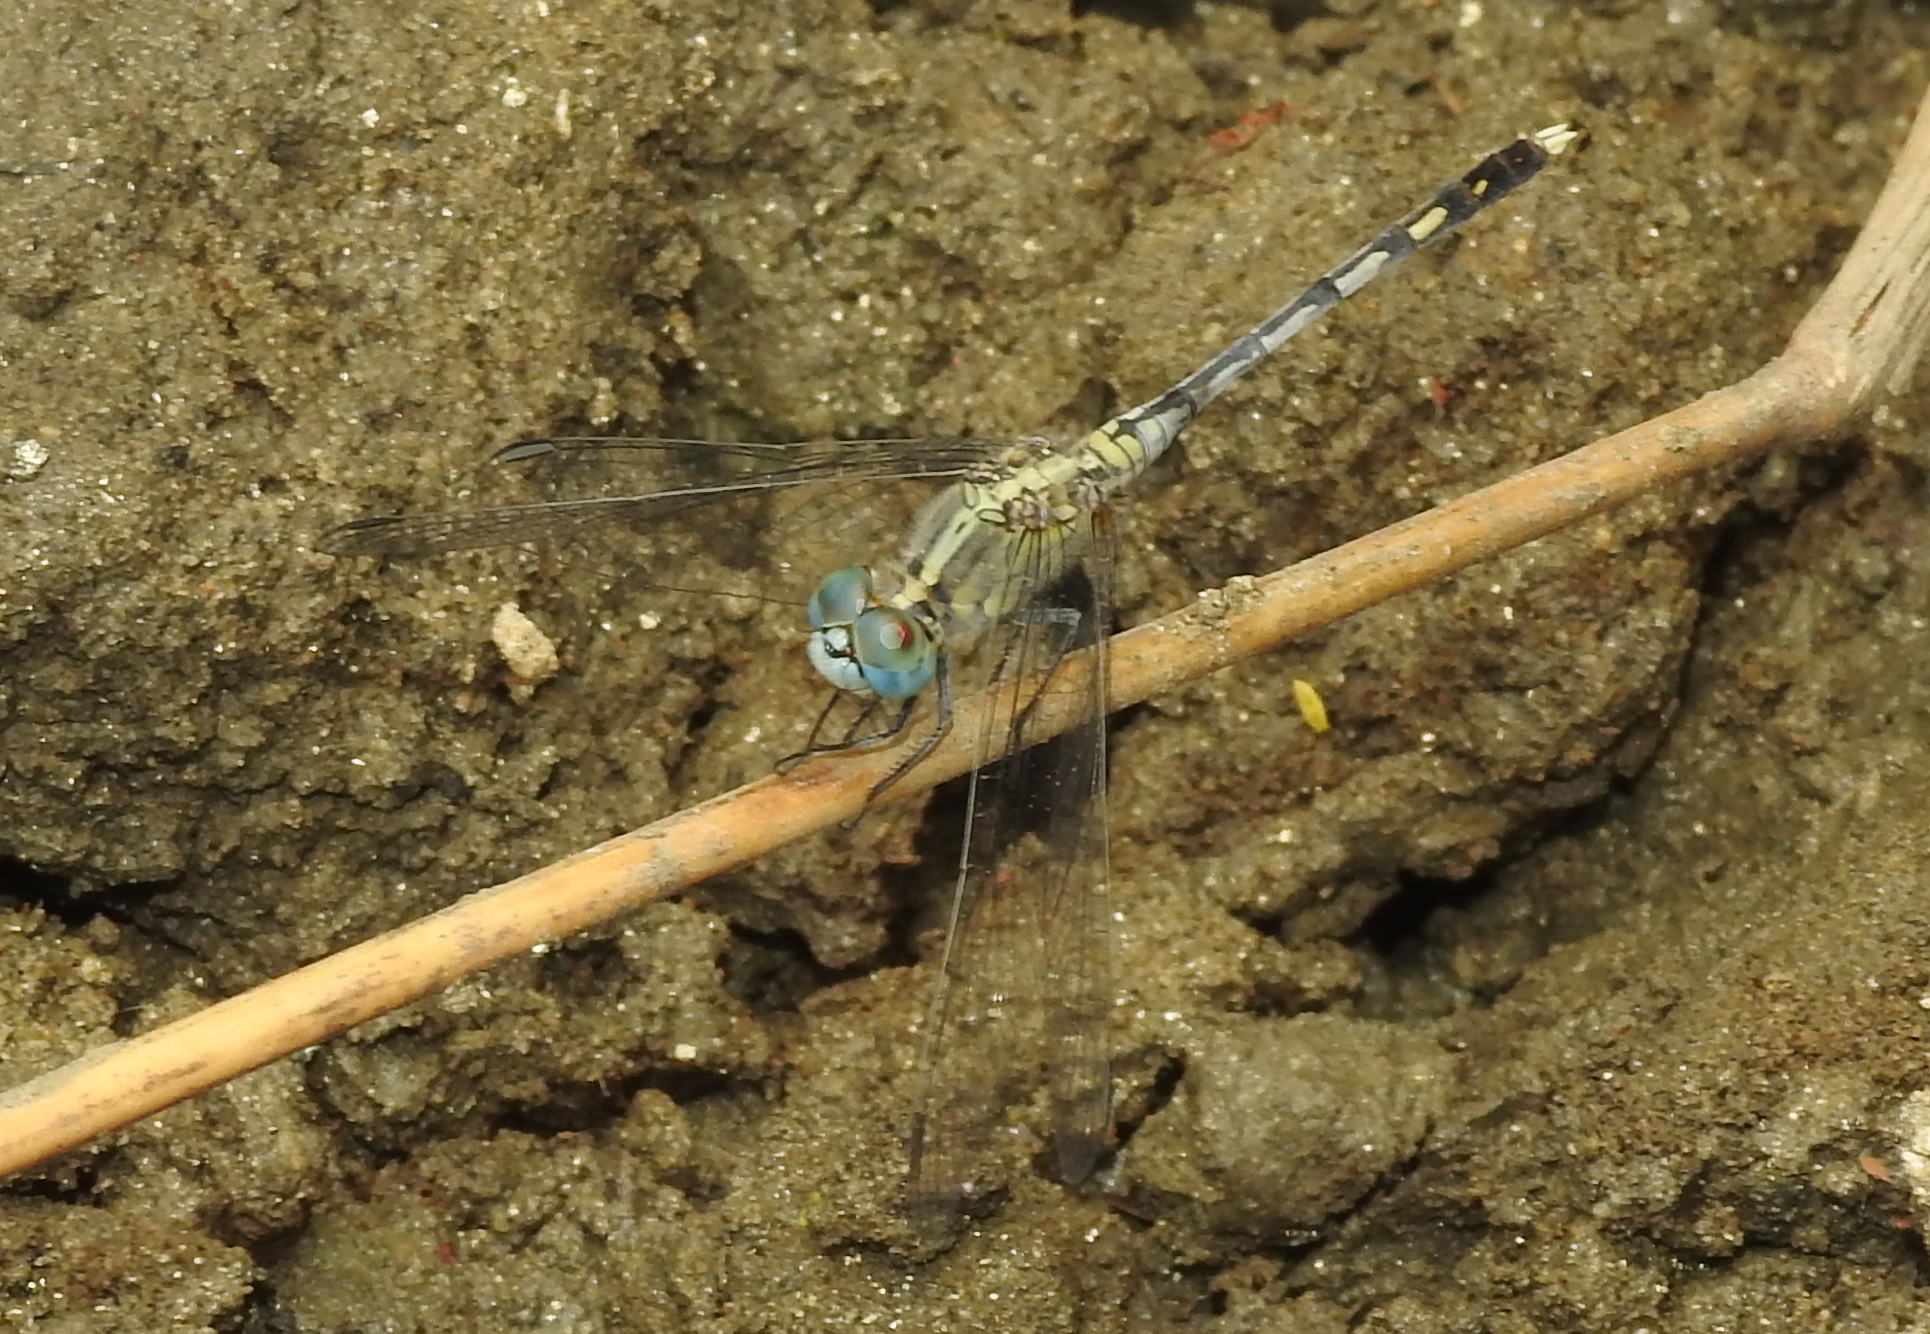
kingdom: Animalia
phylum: Arthropoda
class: Insecta
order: Odonata
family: Libellulidae
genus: Diplacodes
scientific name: Diplacodes trivialis
